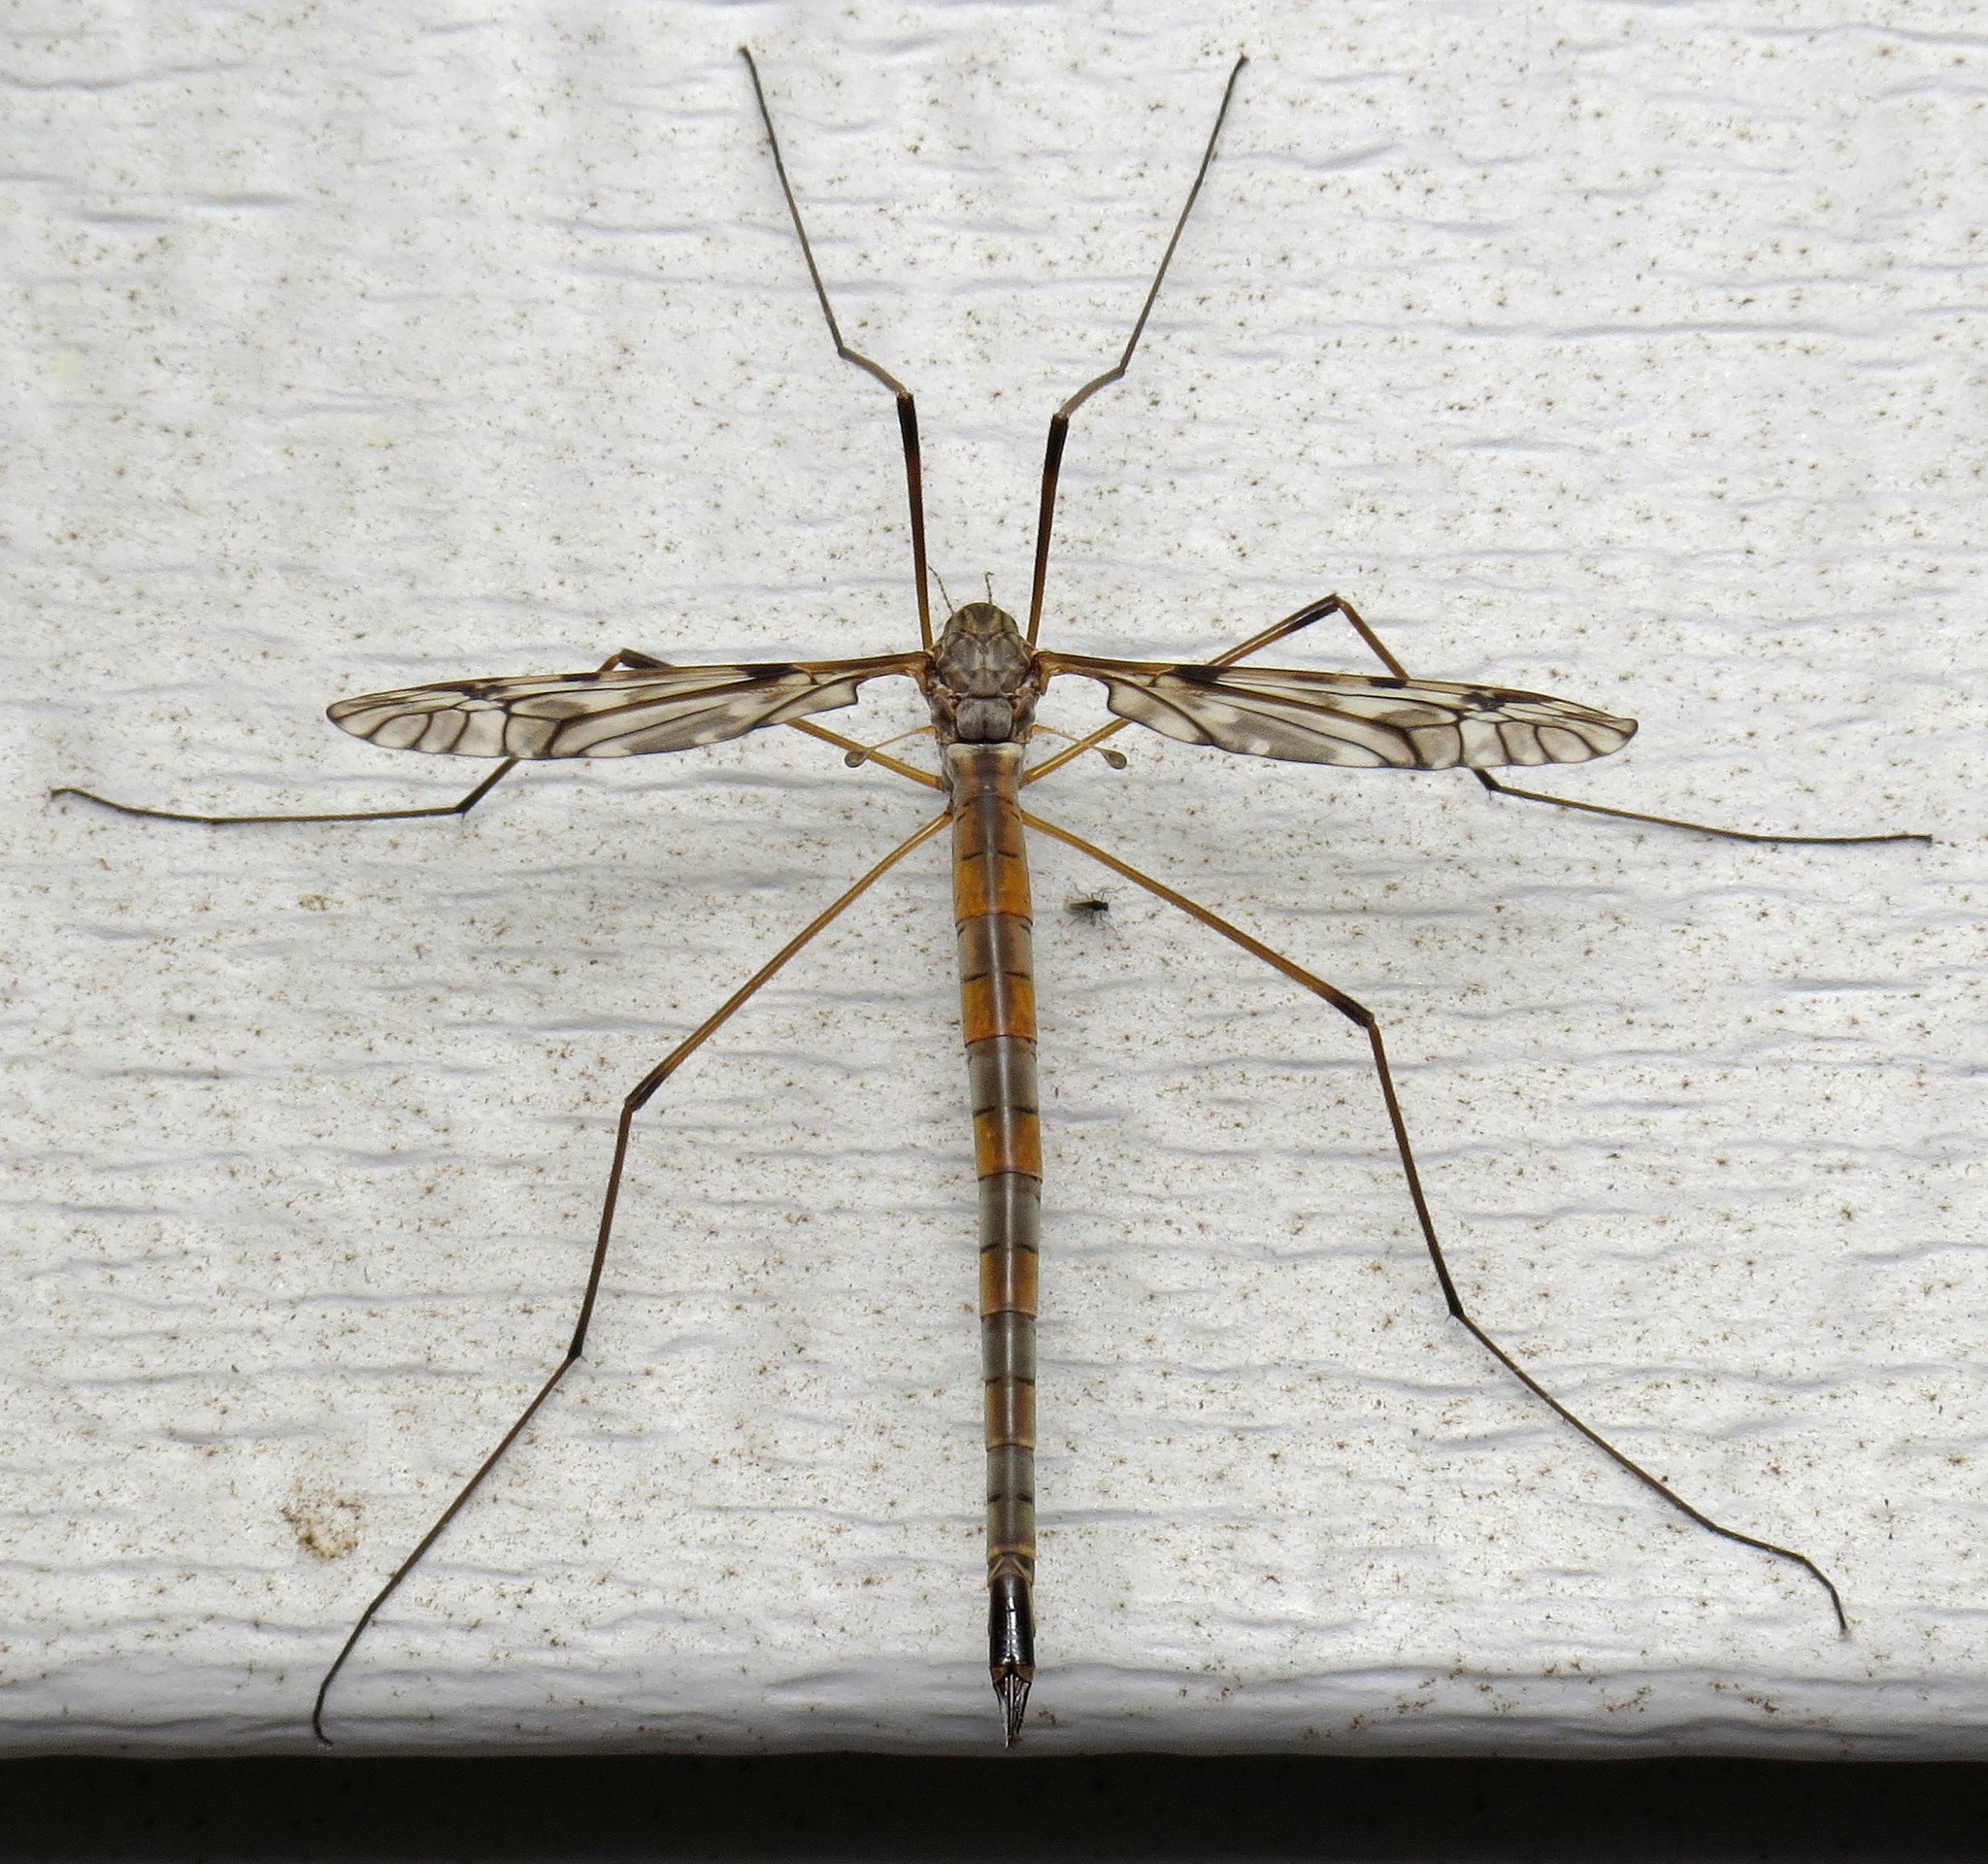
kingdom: Animalia
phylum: Arthropoda
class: Insecta
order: Diptera
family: Tipulidae
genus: Tipula
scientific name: Tipula longiventris
